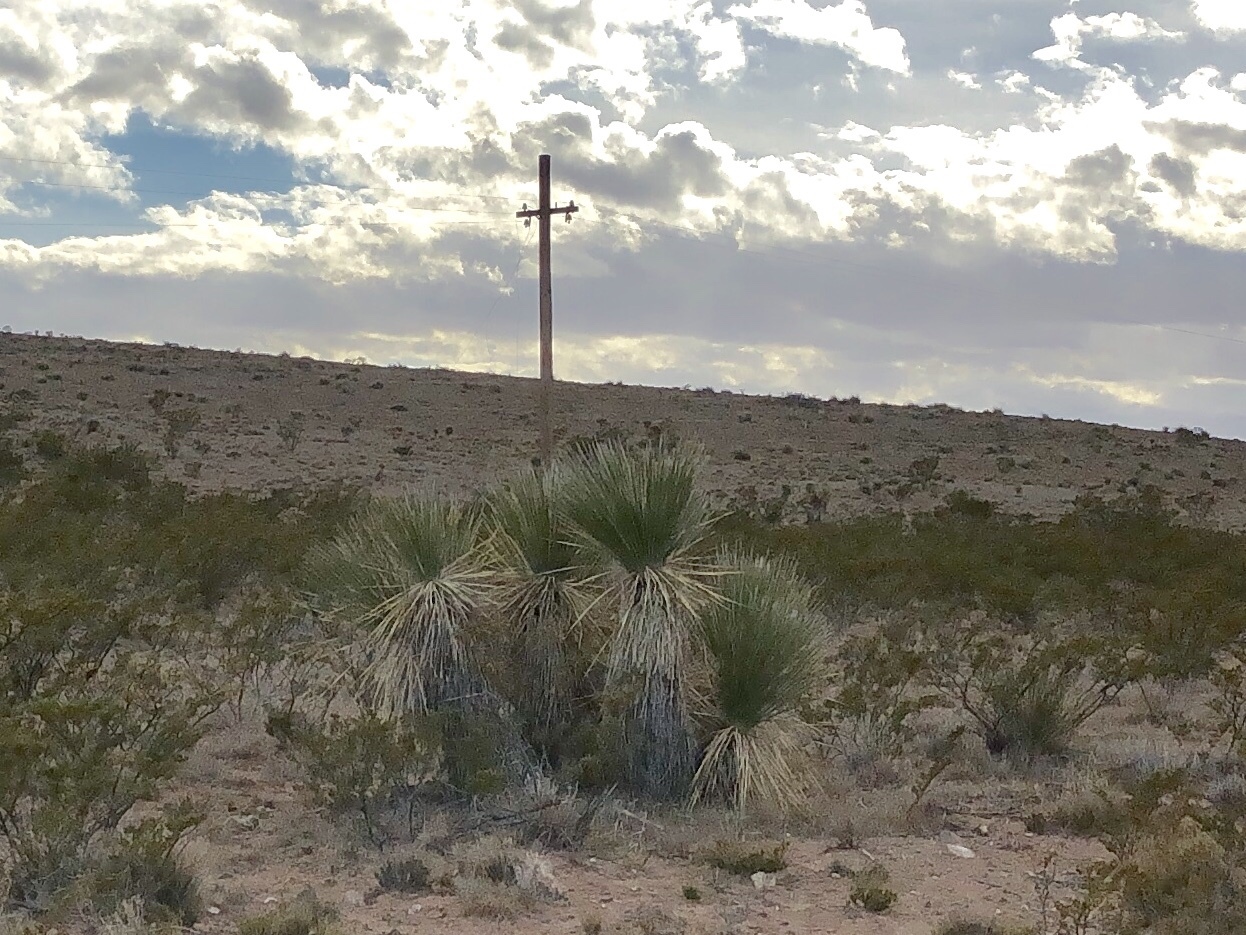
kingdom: Plantae
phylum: Tracheophyta
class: Liliopsida
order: Asparagales
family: Asparagaceae
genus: Yucca
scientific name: Yucca elata
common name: Palmella
